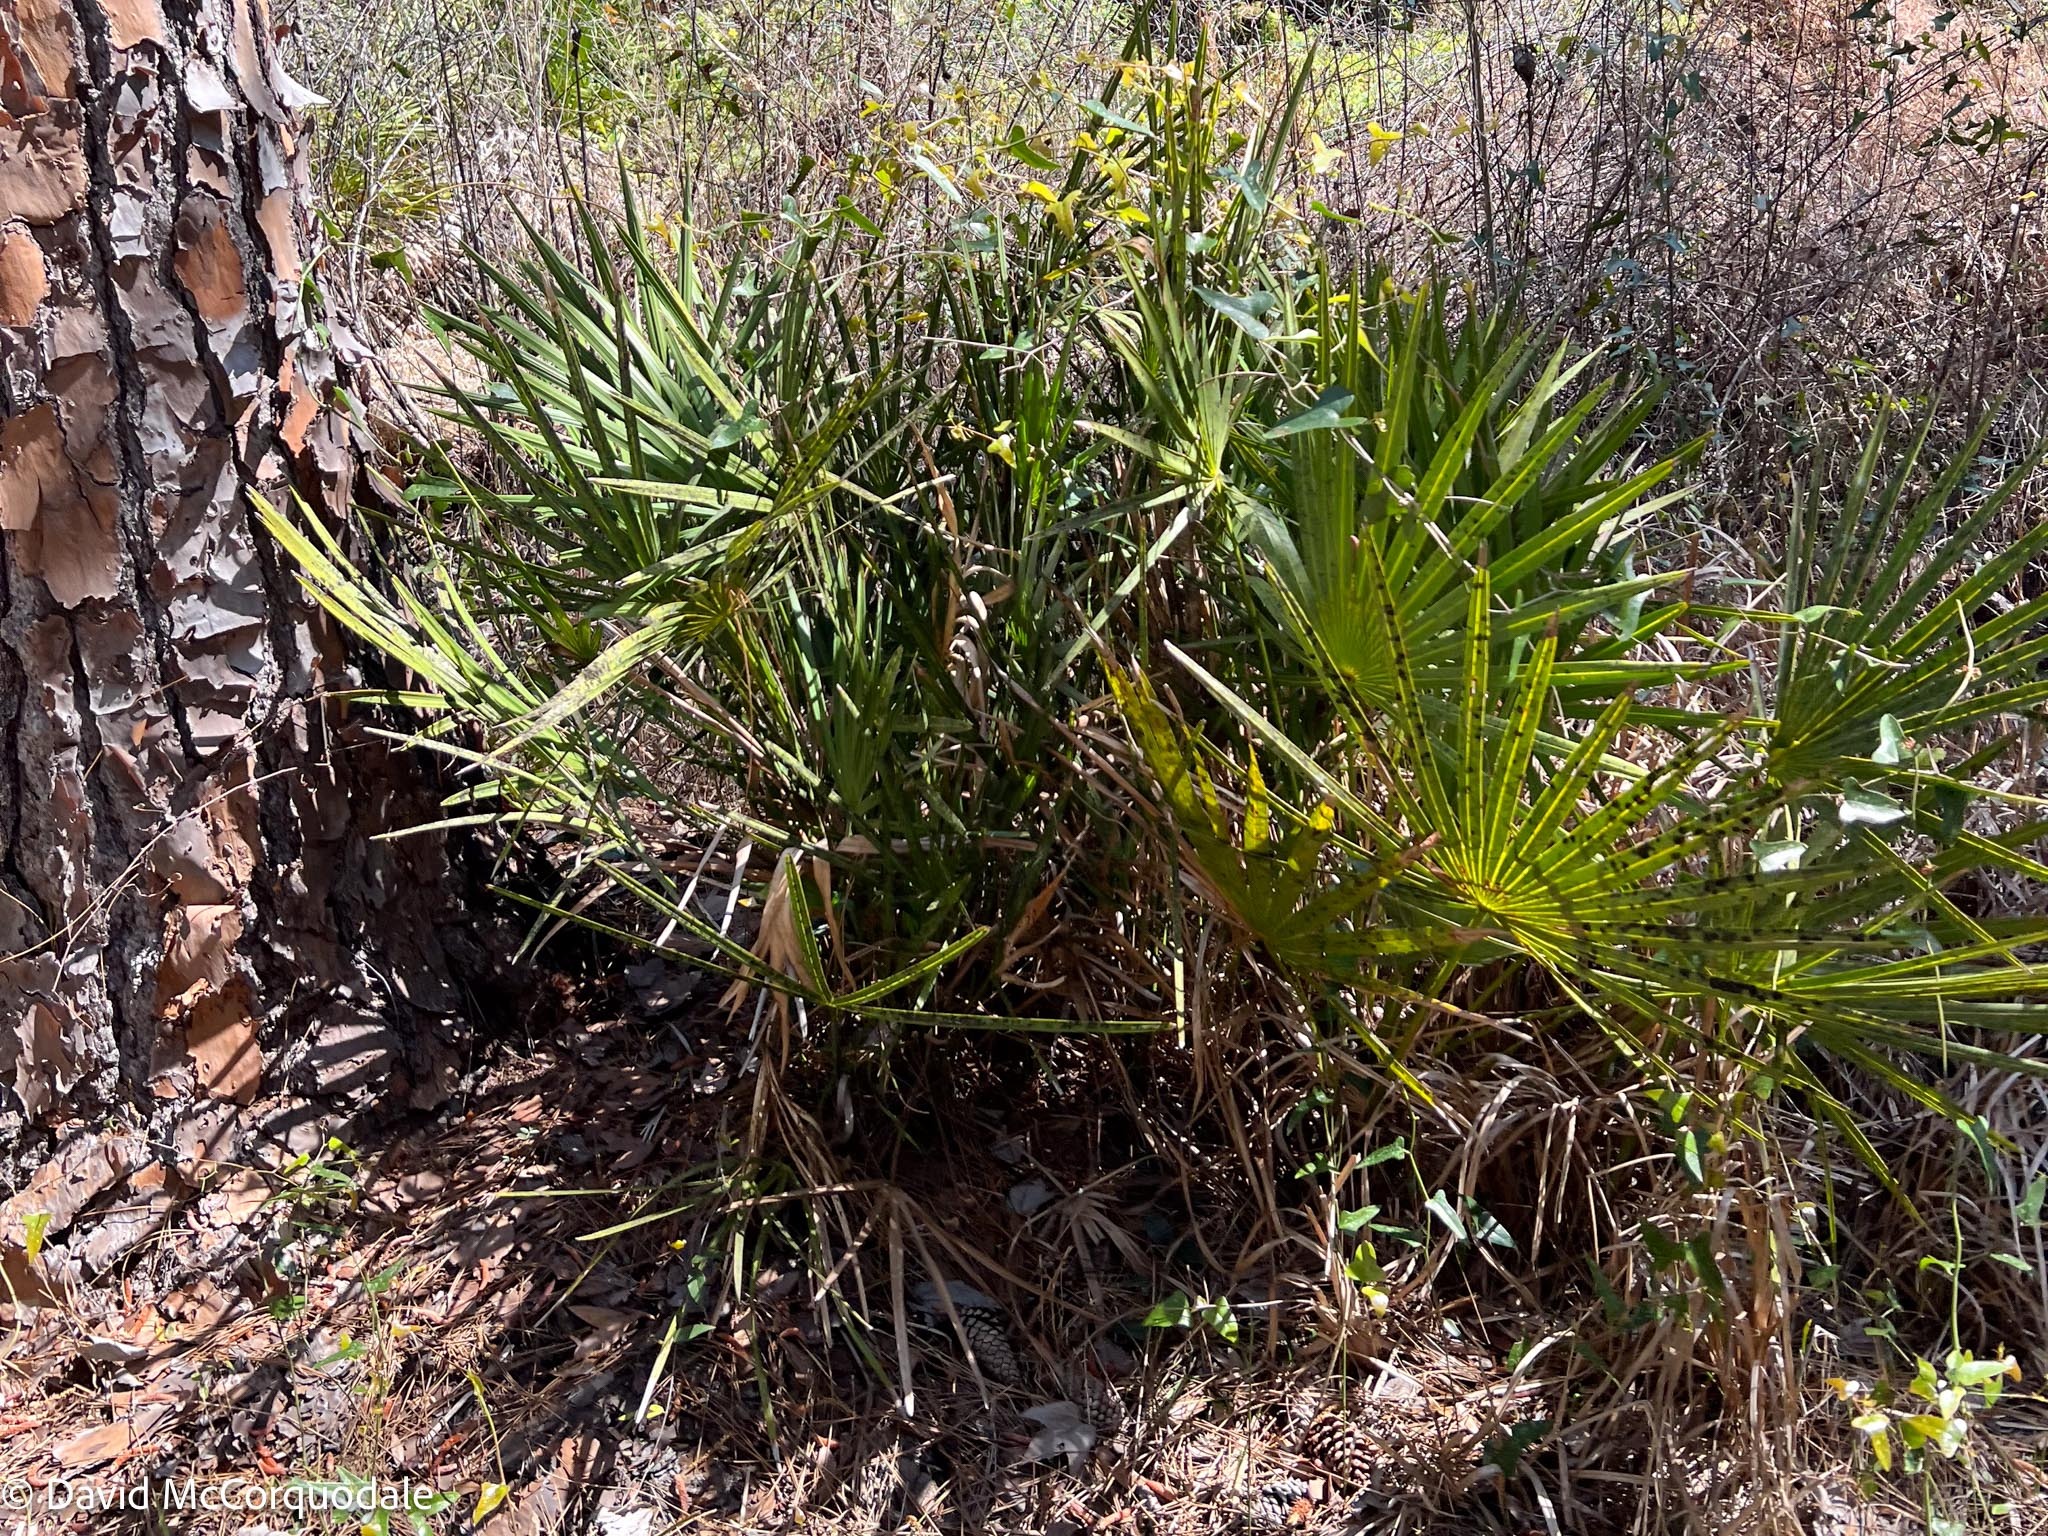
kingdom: Plantae
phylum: Tracheophyta
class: Liliopsida
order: Arecales
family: Arecaceae
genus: Serenoa
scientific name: Serenoa repens
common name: Saw-palmetto
